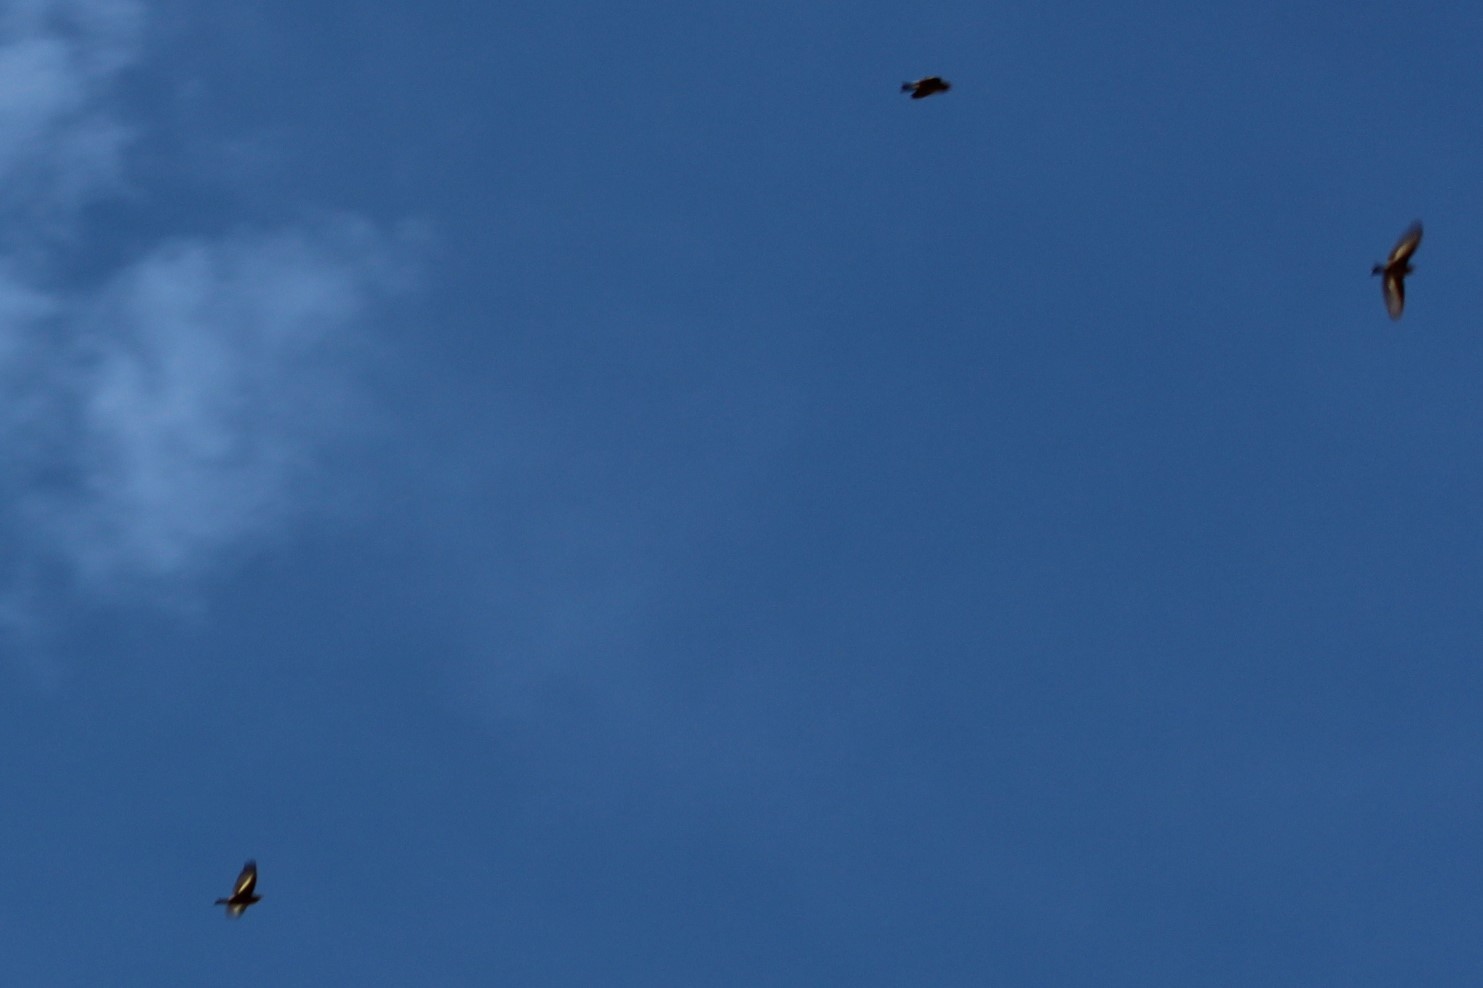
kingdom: Animalia
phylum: Chordata
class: Aves
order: Passeriformes
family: Fringillidae
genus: Spinus
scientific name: Spinus pinus
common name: Pine siskin
